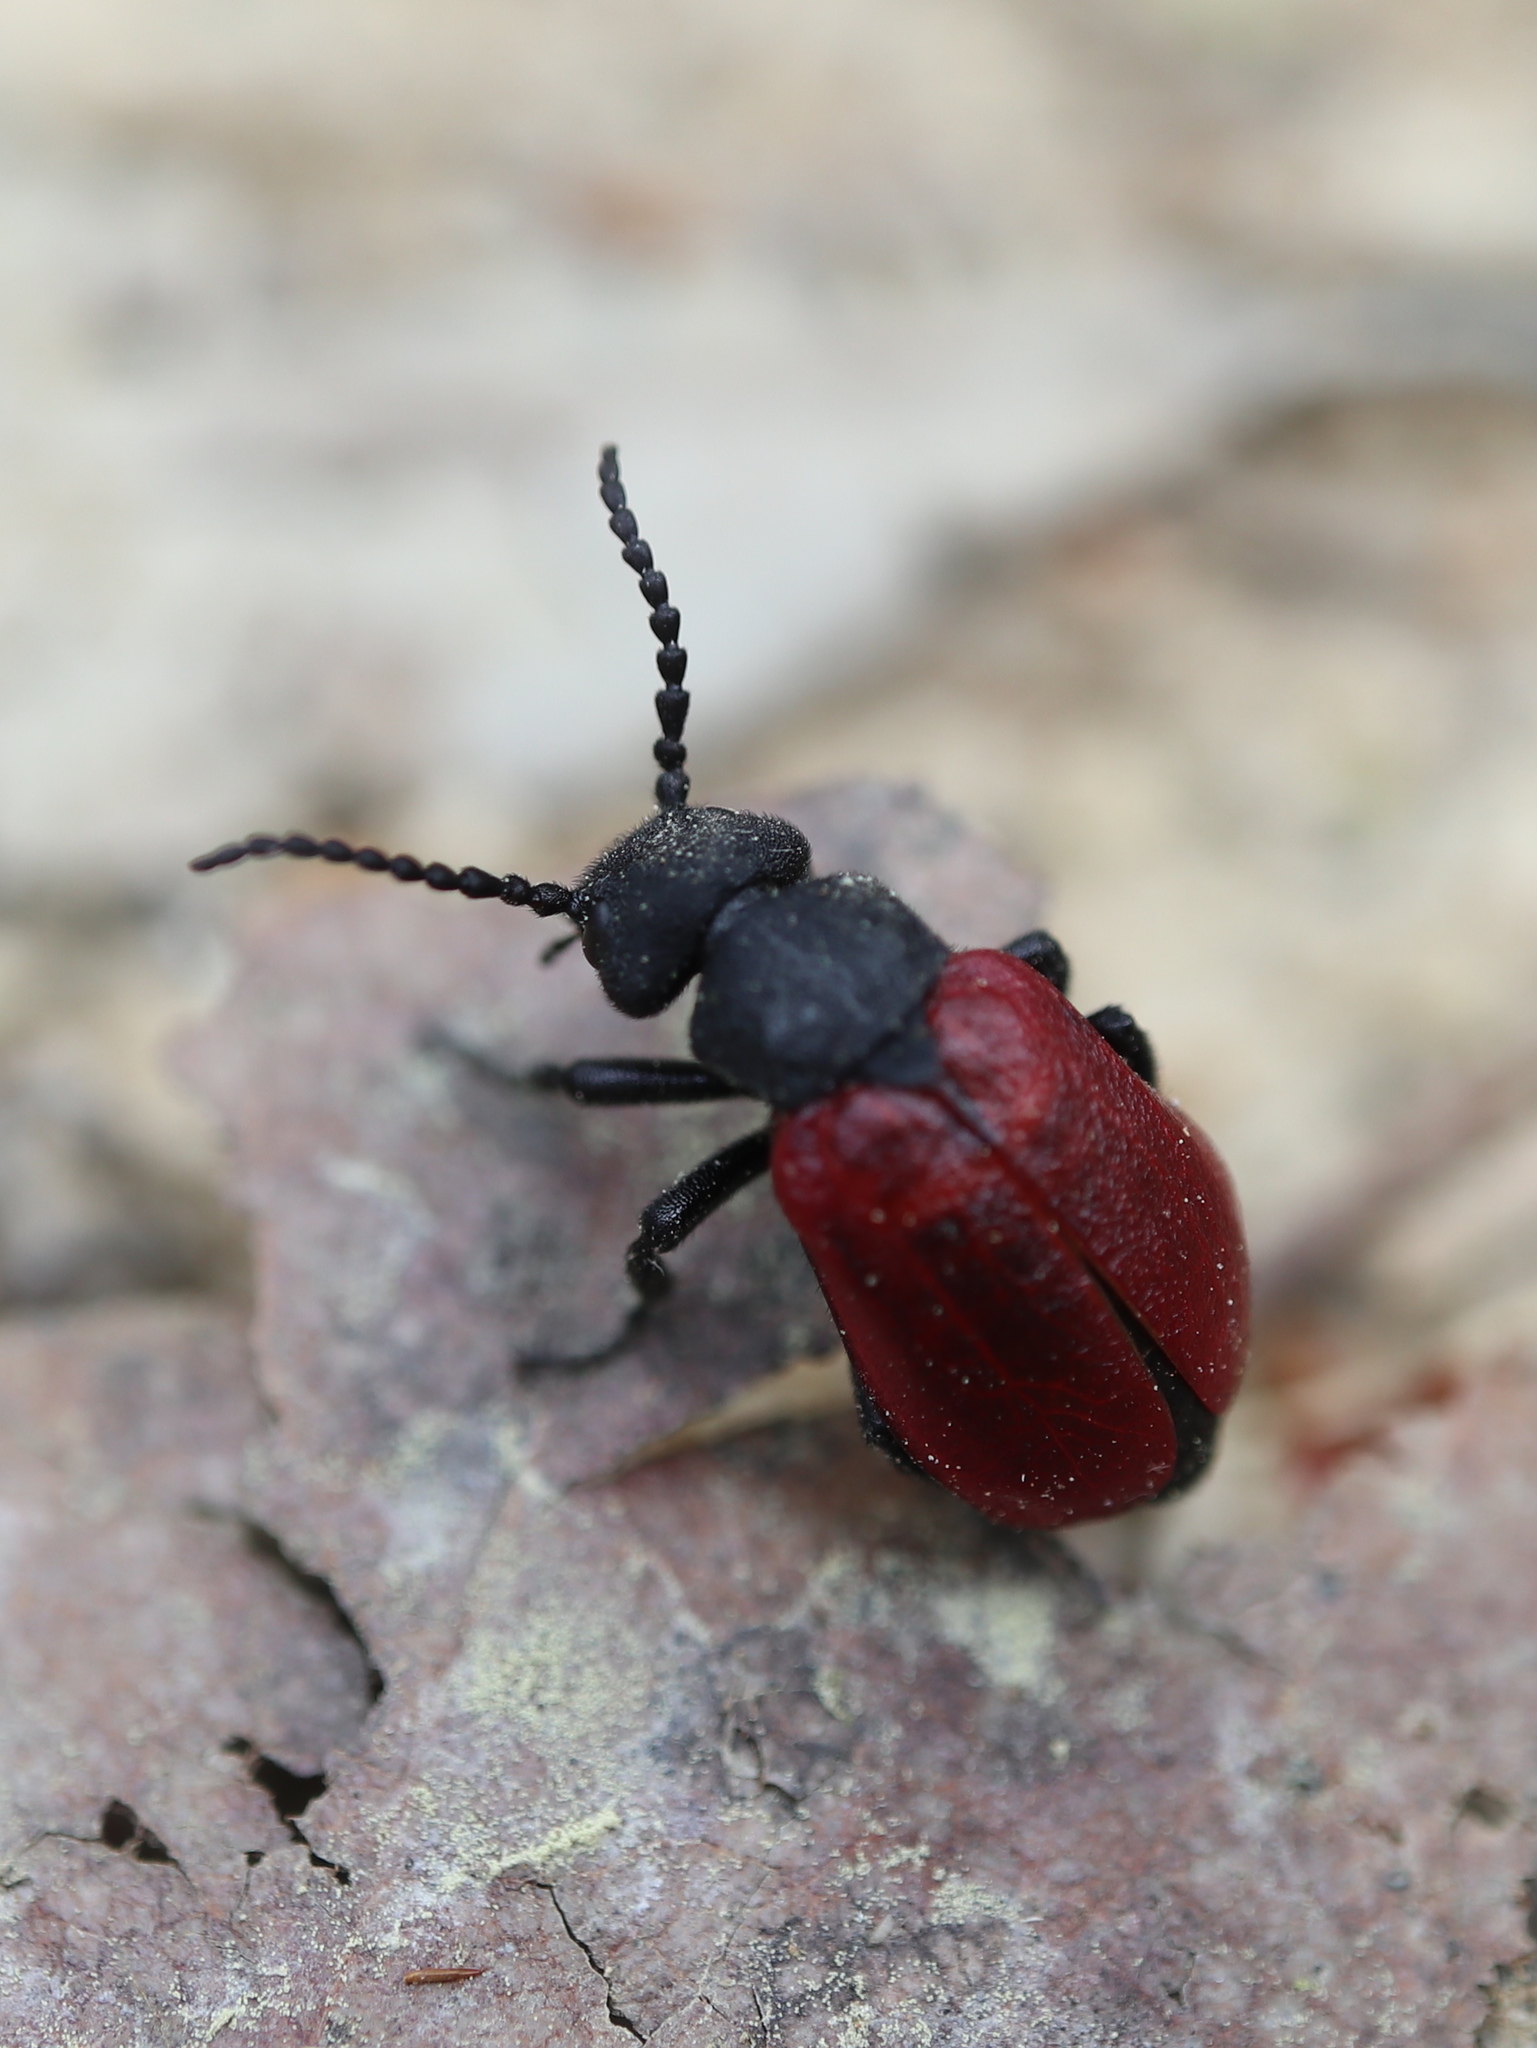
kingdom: Animalia
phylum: Arthropoda
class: Insecta
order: Coleoptera
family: Meloidae
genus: Tricrania
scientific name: Tricrania sanguinipennis
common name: Blood-winged blister beetle
